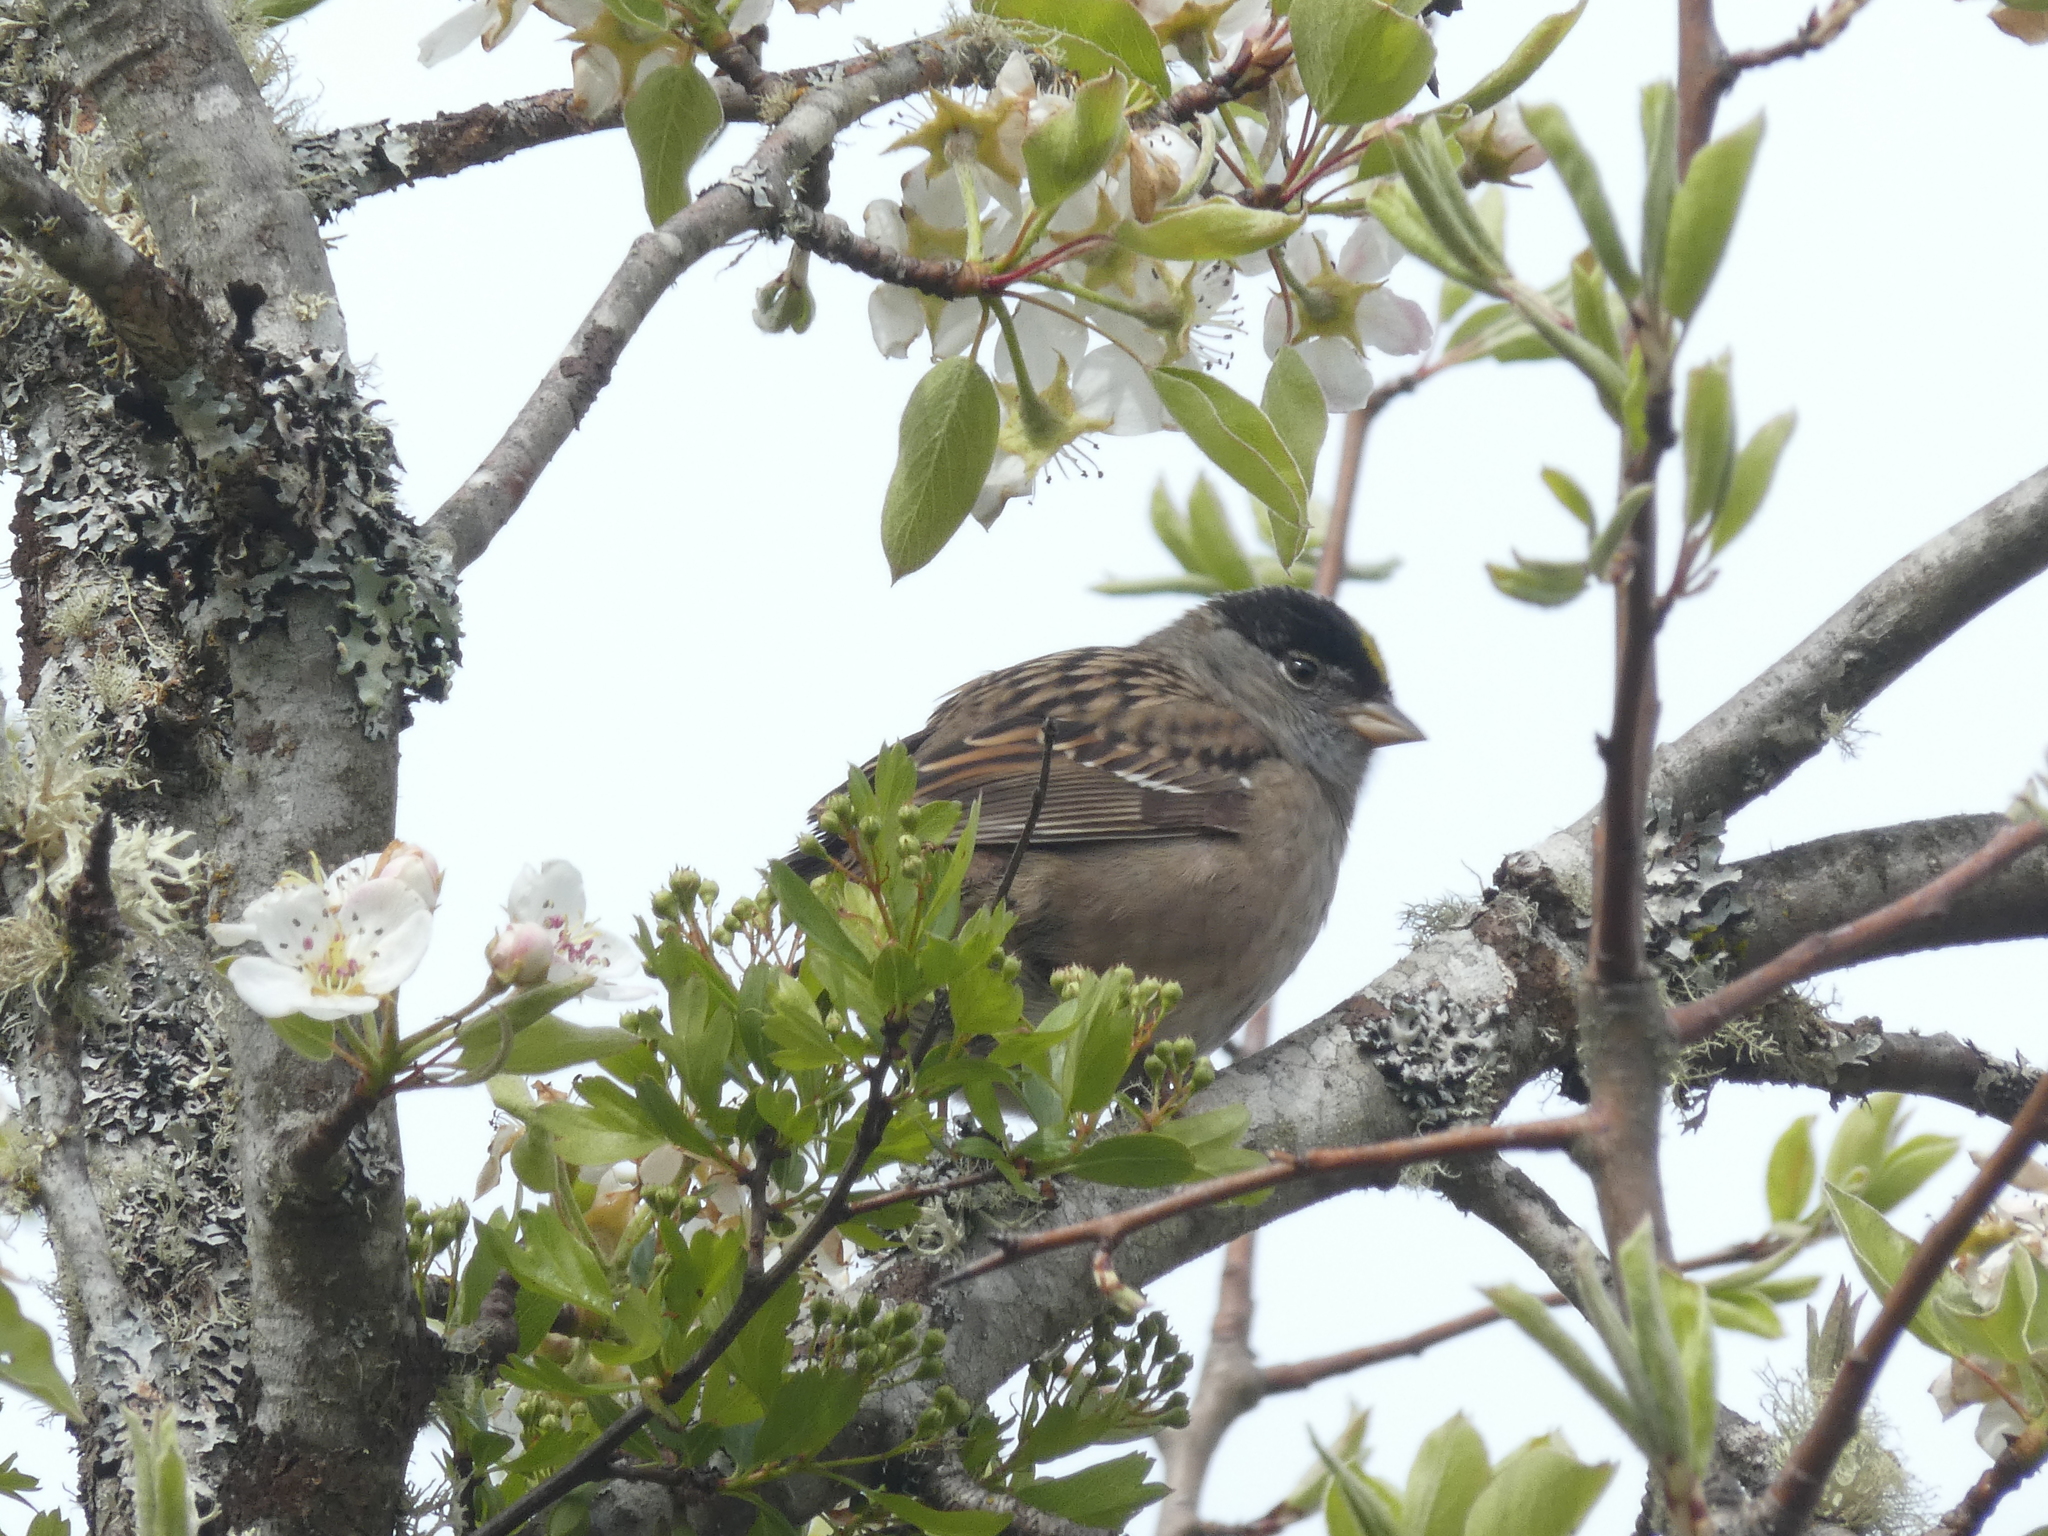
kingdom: Animalia
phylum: Chordata
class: Aves
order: Passeriformes
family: Passerellidae
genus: Zonotrichia
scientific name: Zonotrichia atricapilla
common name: Golden-crowned sparrow
